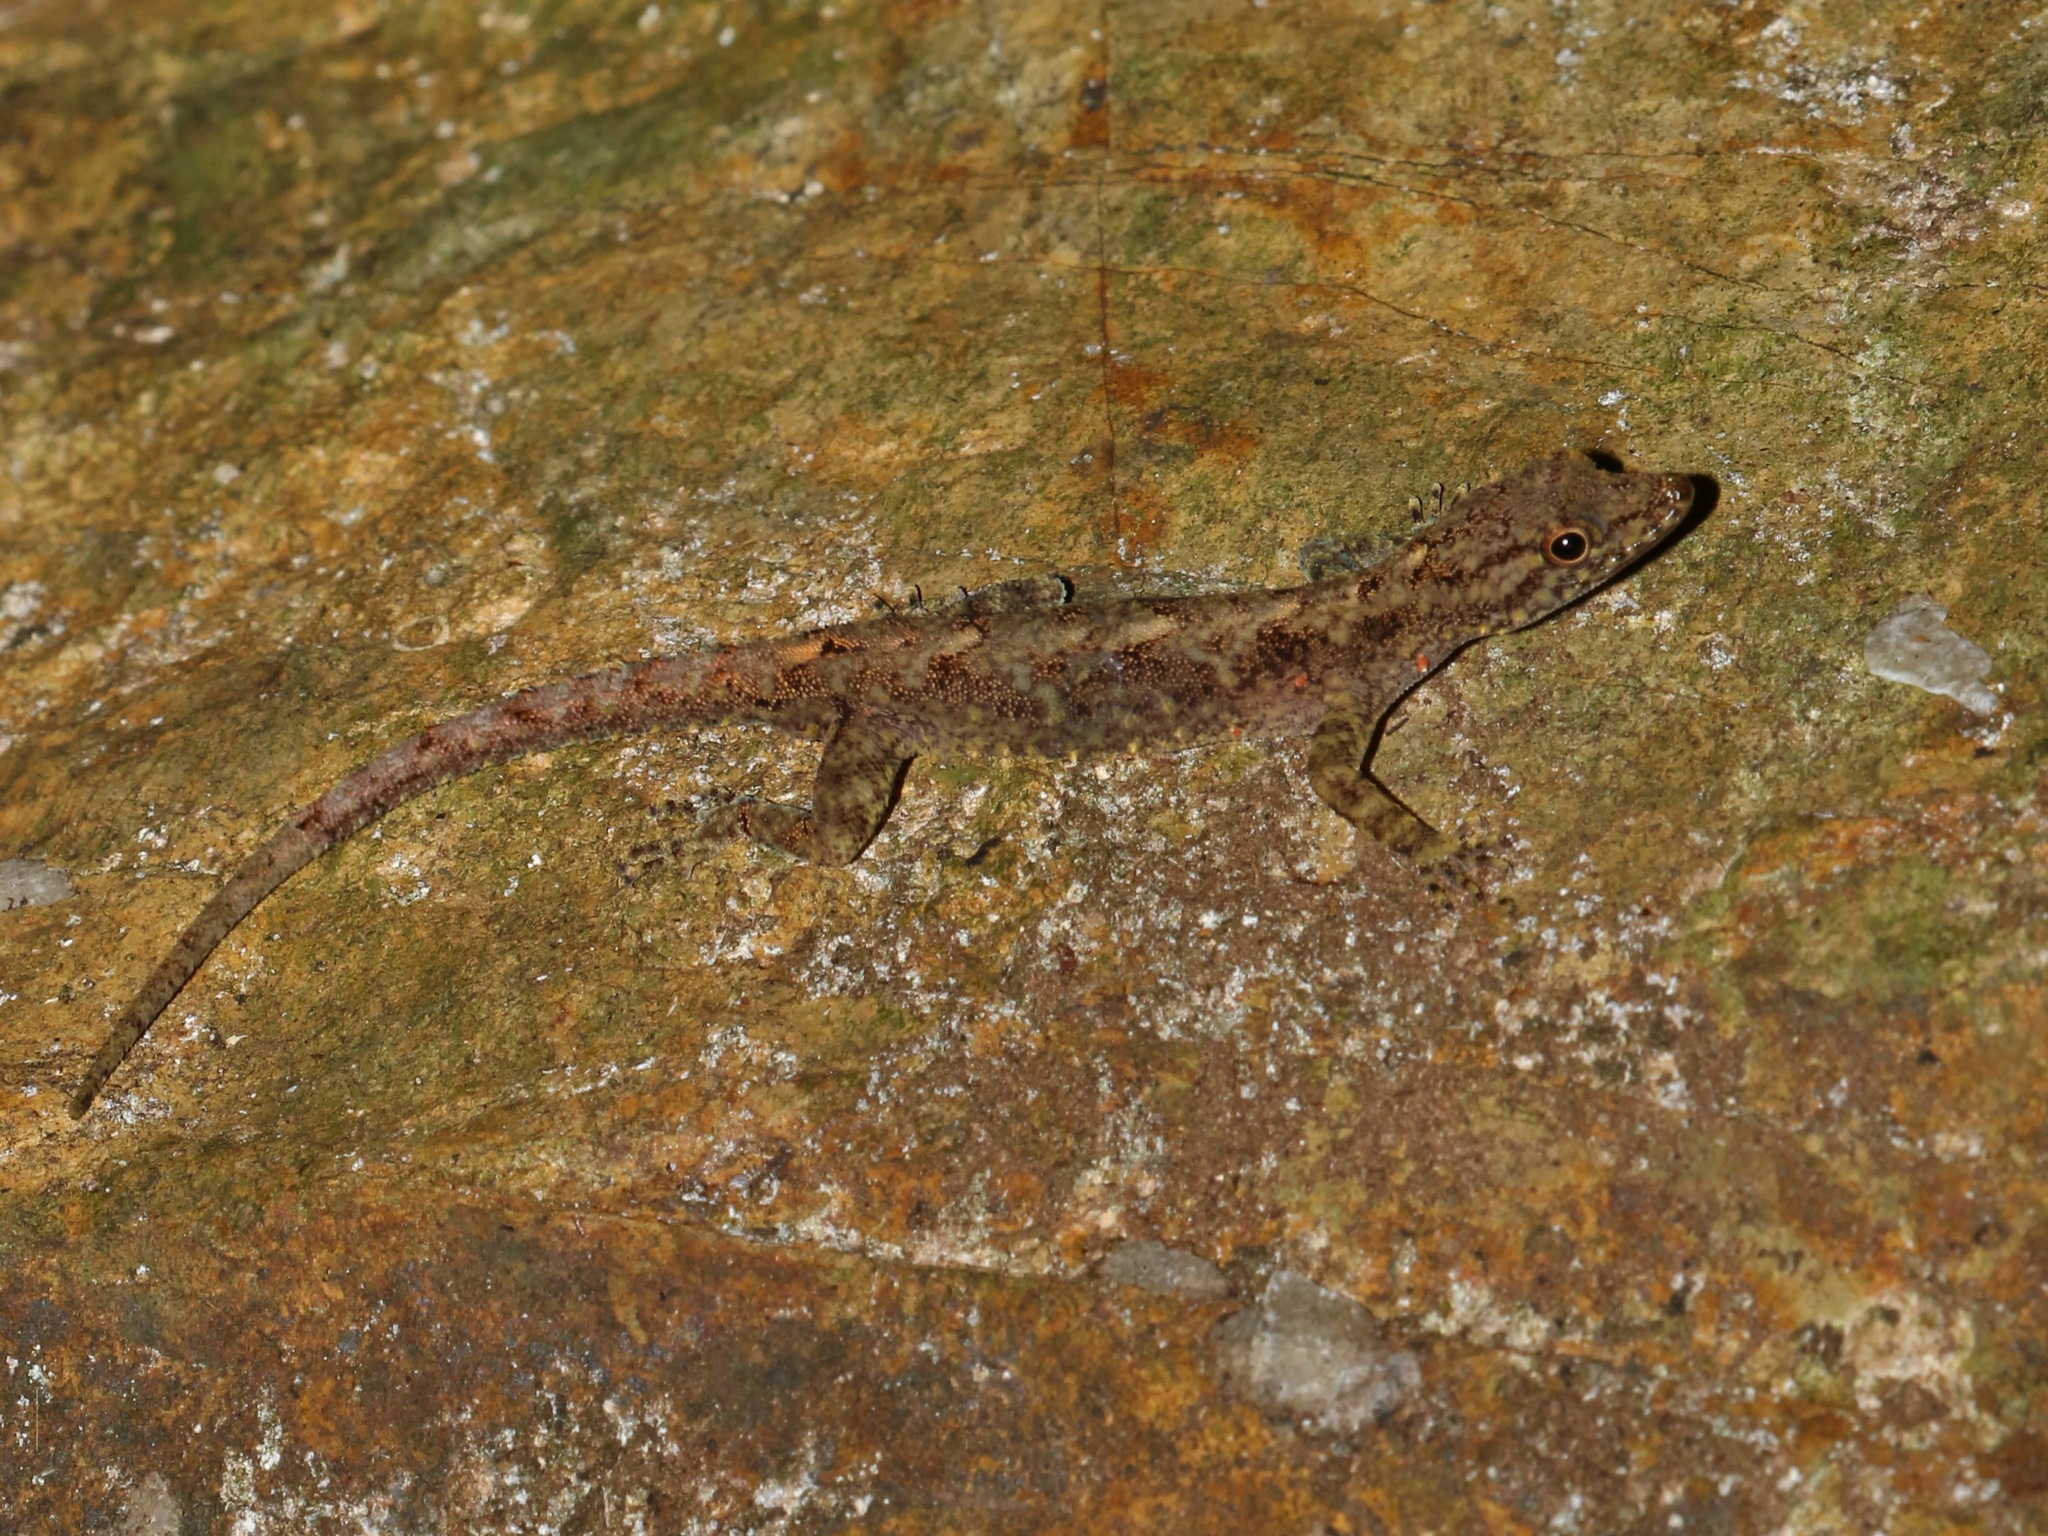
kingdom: Animalia
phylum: Chordata
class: Squamata
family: Gekkonidae
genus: Cnemaspis
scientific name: Cnemaspis siamensis
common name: Siamese rock gecko
